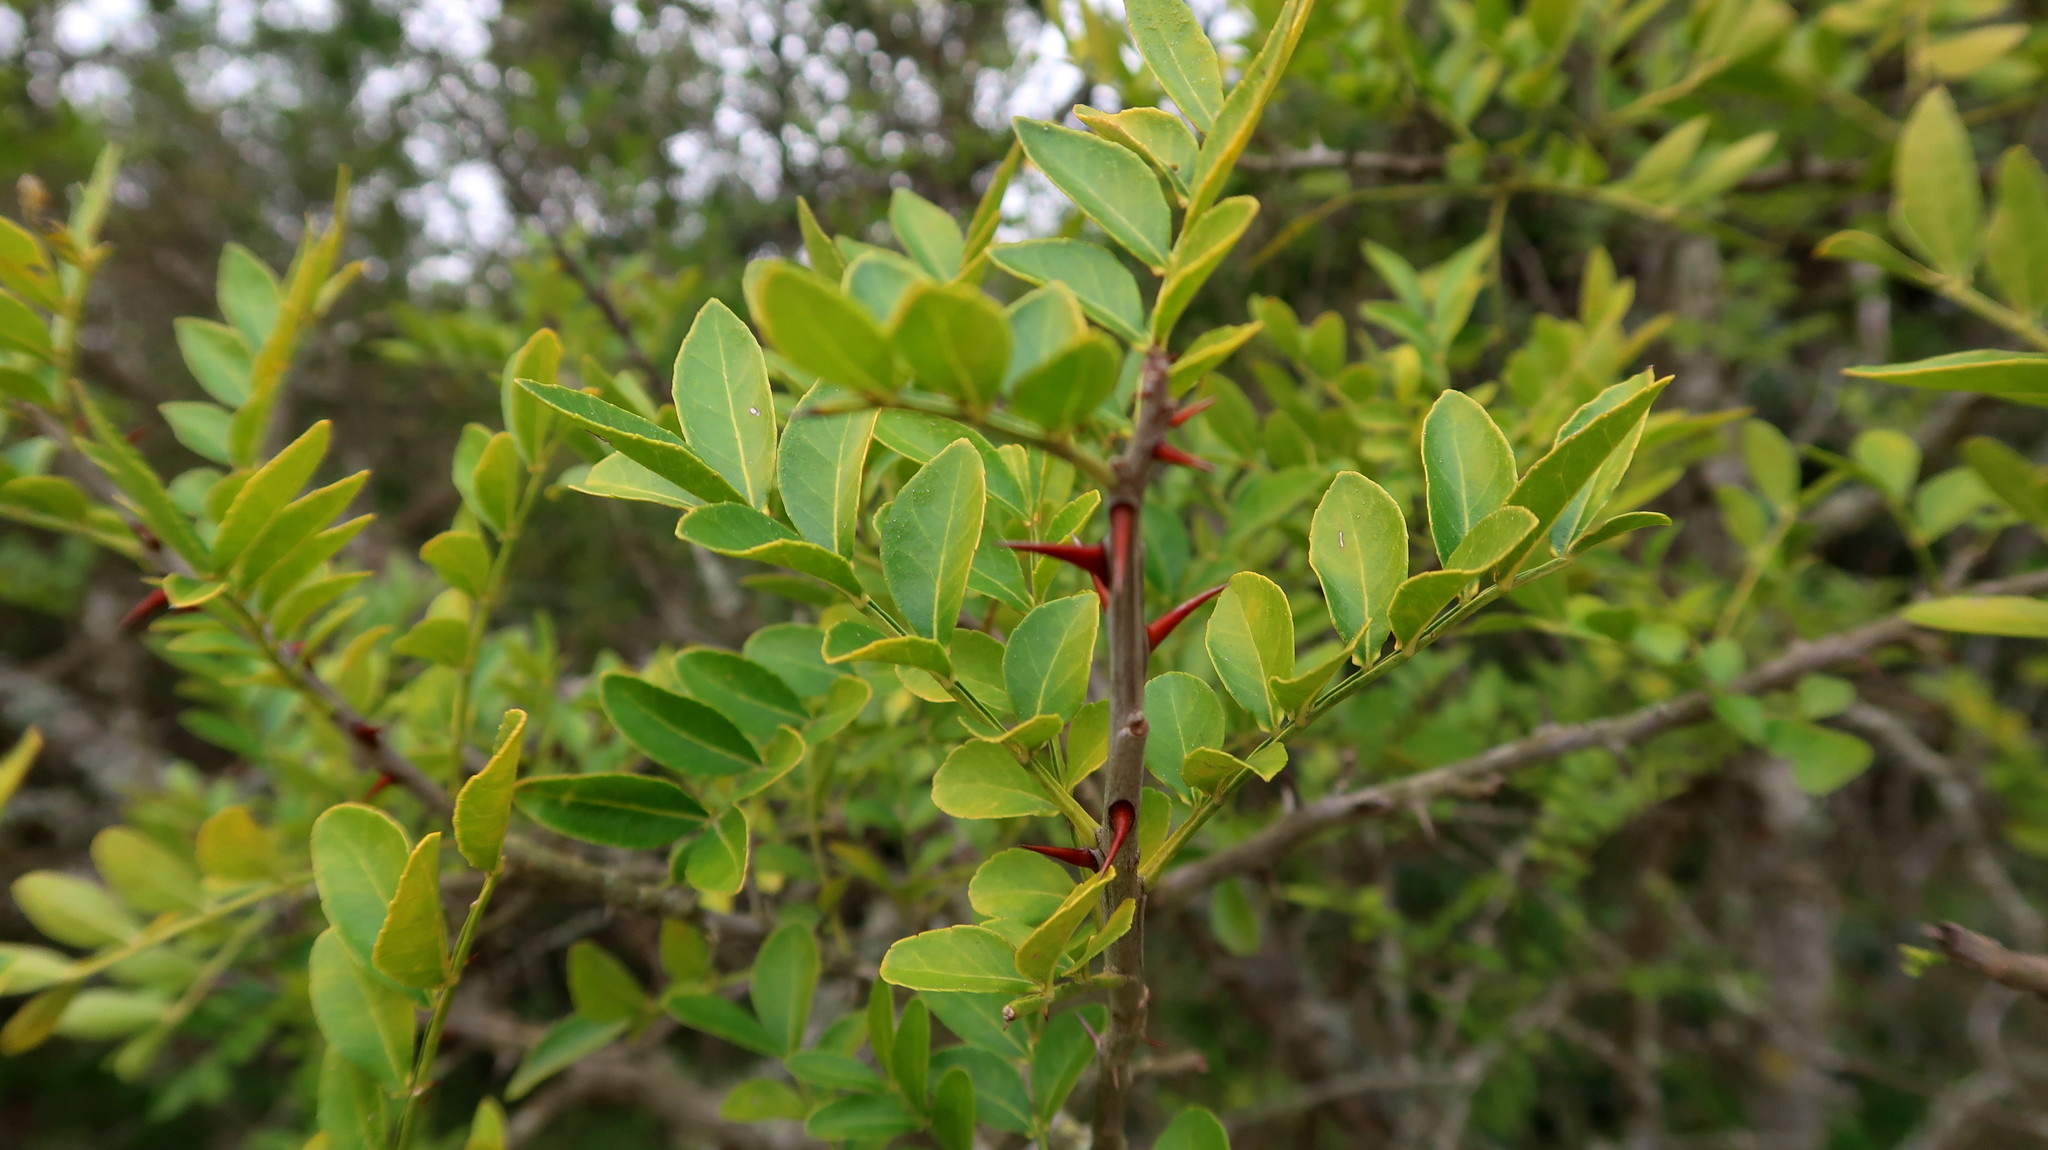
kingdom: Plantae
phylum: Tracheophyta
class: Magnoliopsida
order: Sapindales
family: Rutaceae
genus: Zanthoxylum
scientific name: Zanthoxylum davyi
